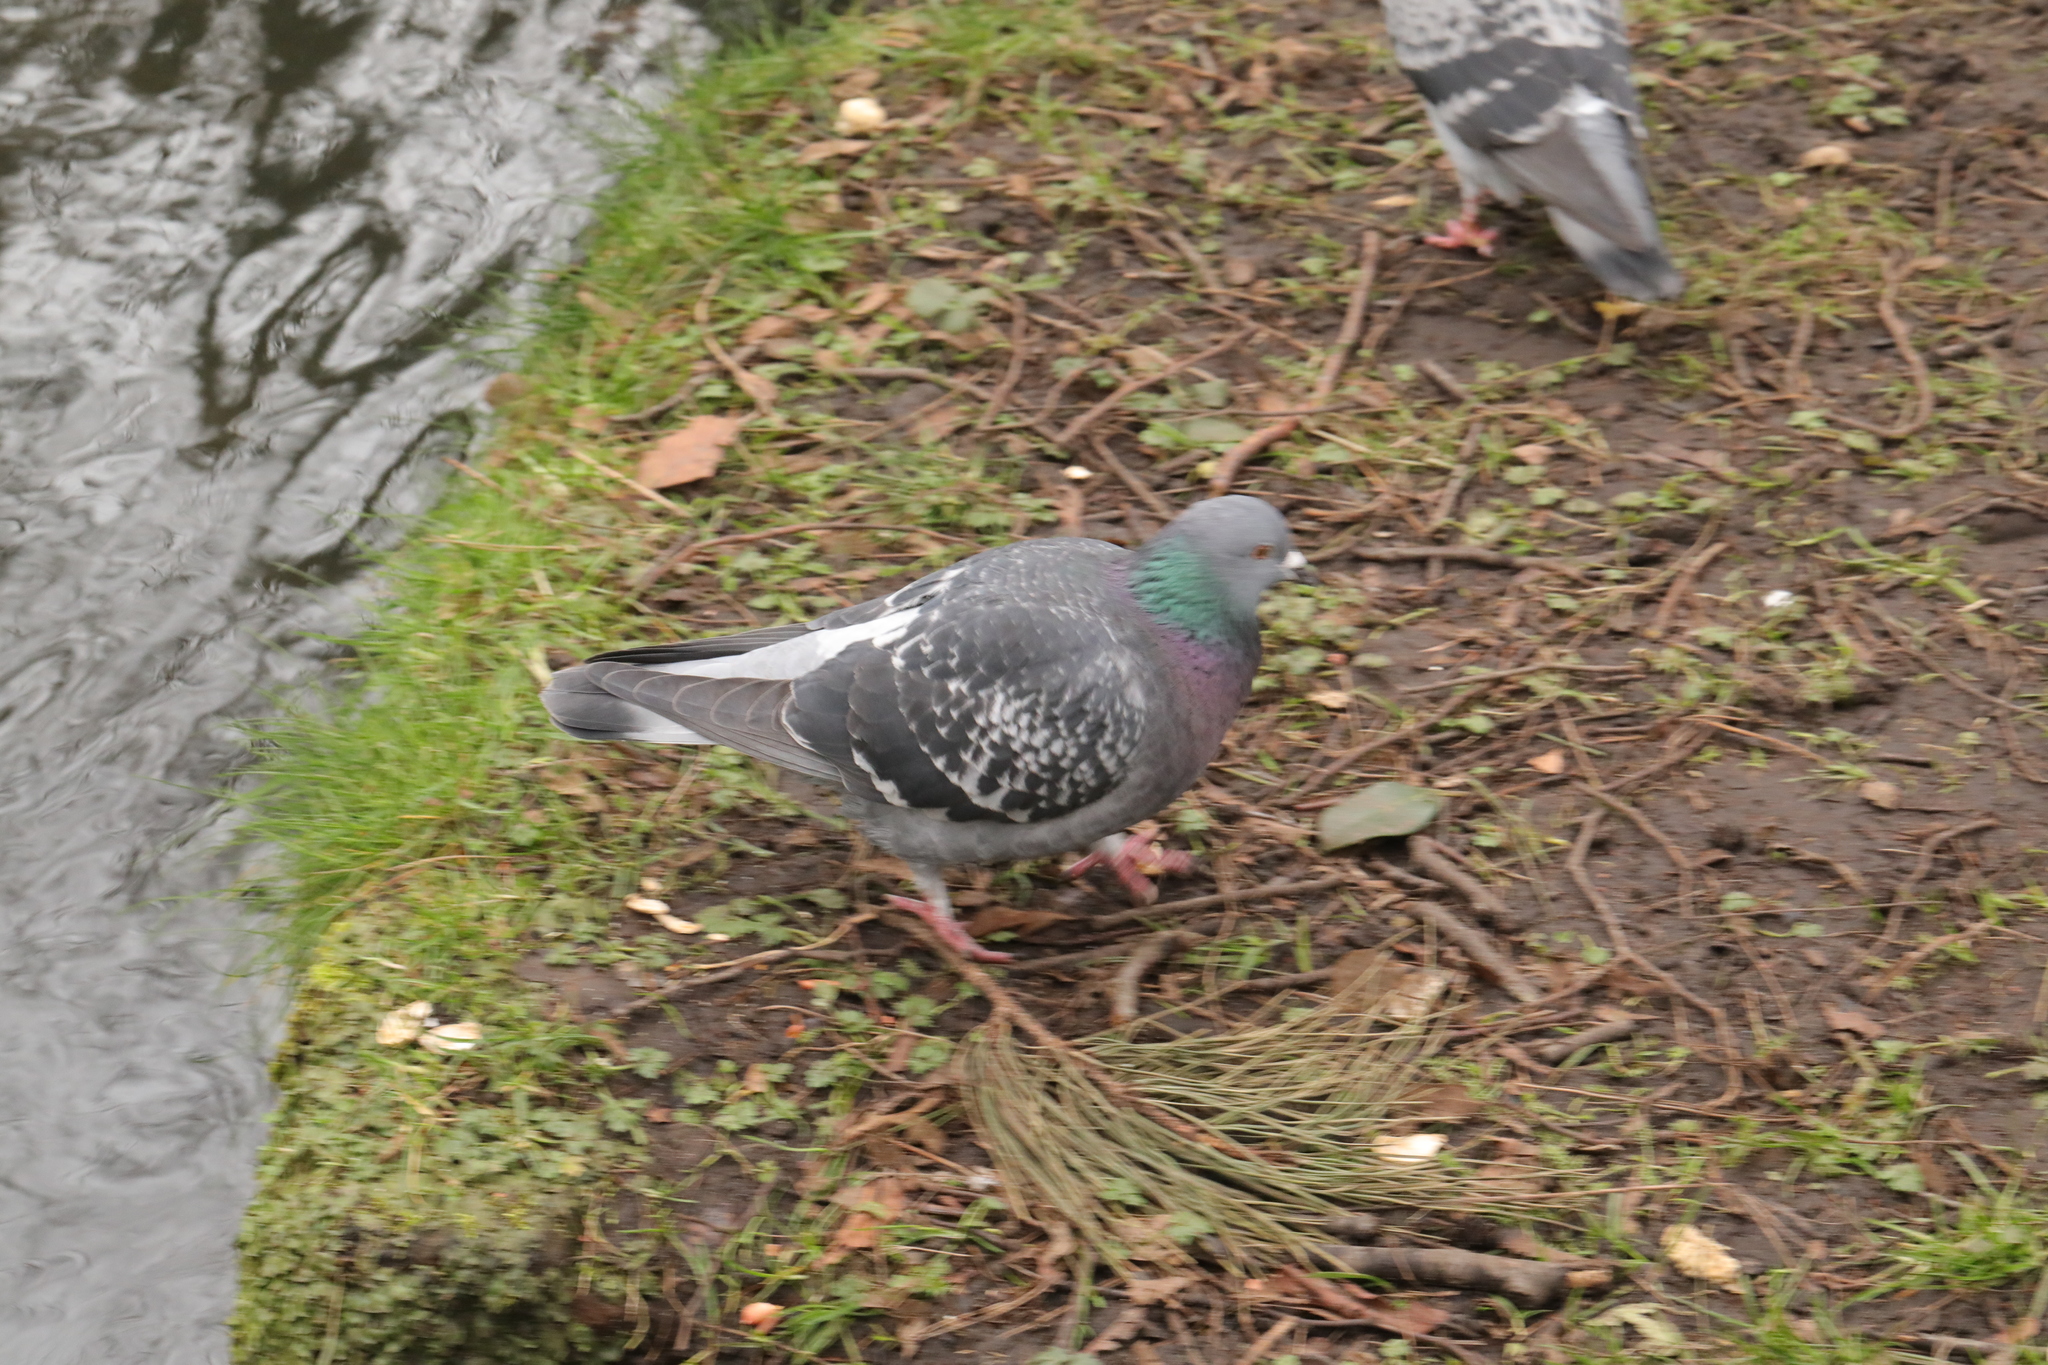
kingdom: Animalia
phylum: Chordata
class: Aves
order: Columbiformes
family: Columbidae
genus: Columba
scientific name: Columba livia
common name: Rock pigeon
